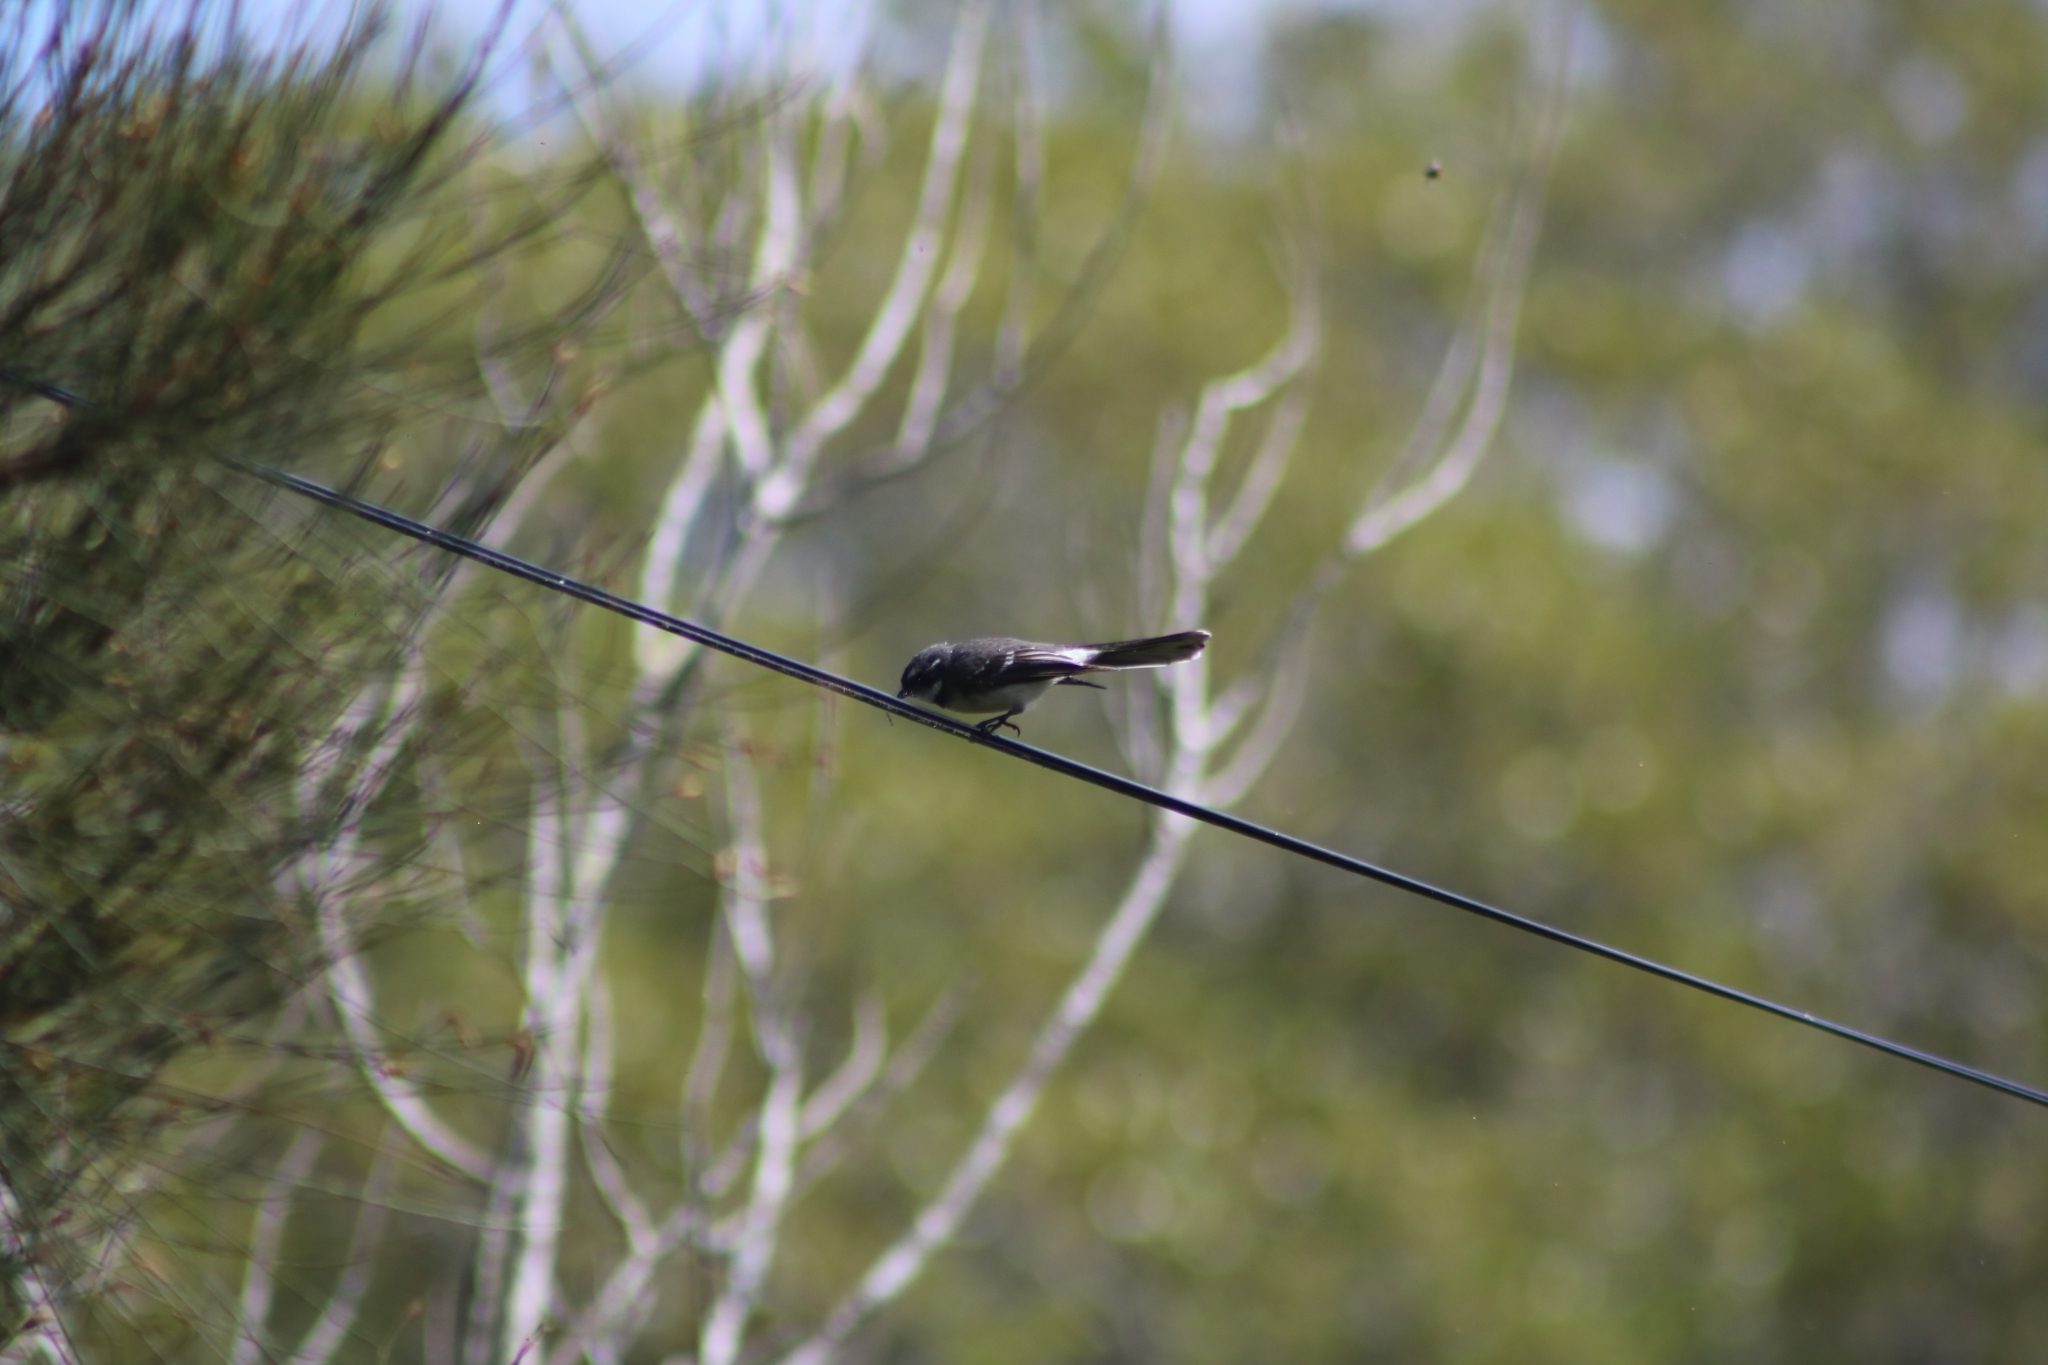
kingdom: Animalia
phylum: Chordata
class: Aves
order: Passeriformes
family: Rhipiduridae
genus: Rhipidura
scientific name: Rhipidura albiscapa
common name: Grey fantail
